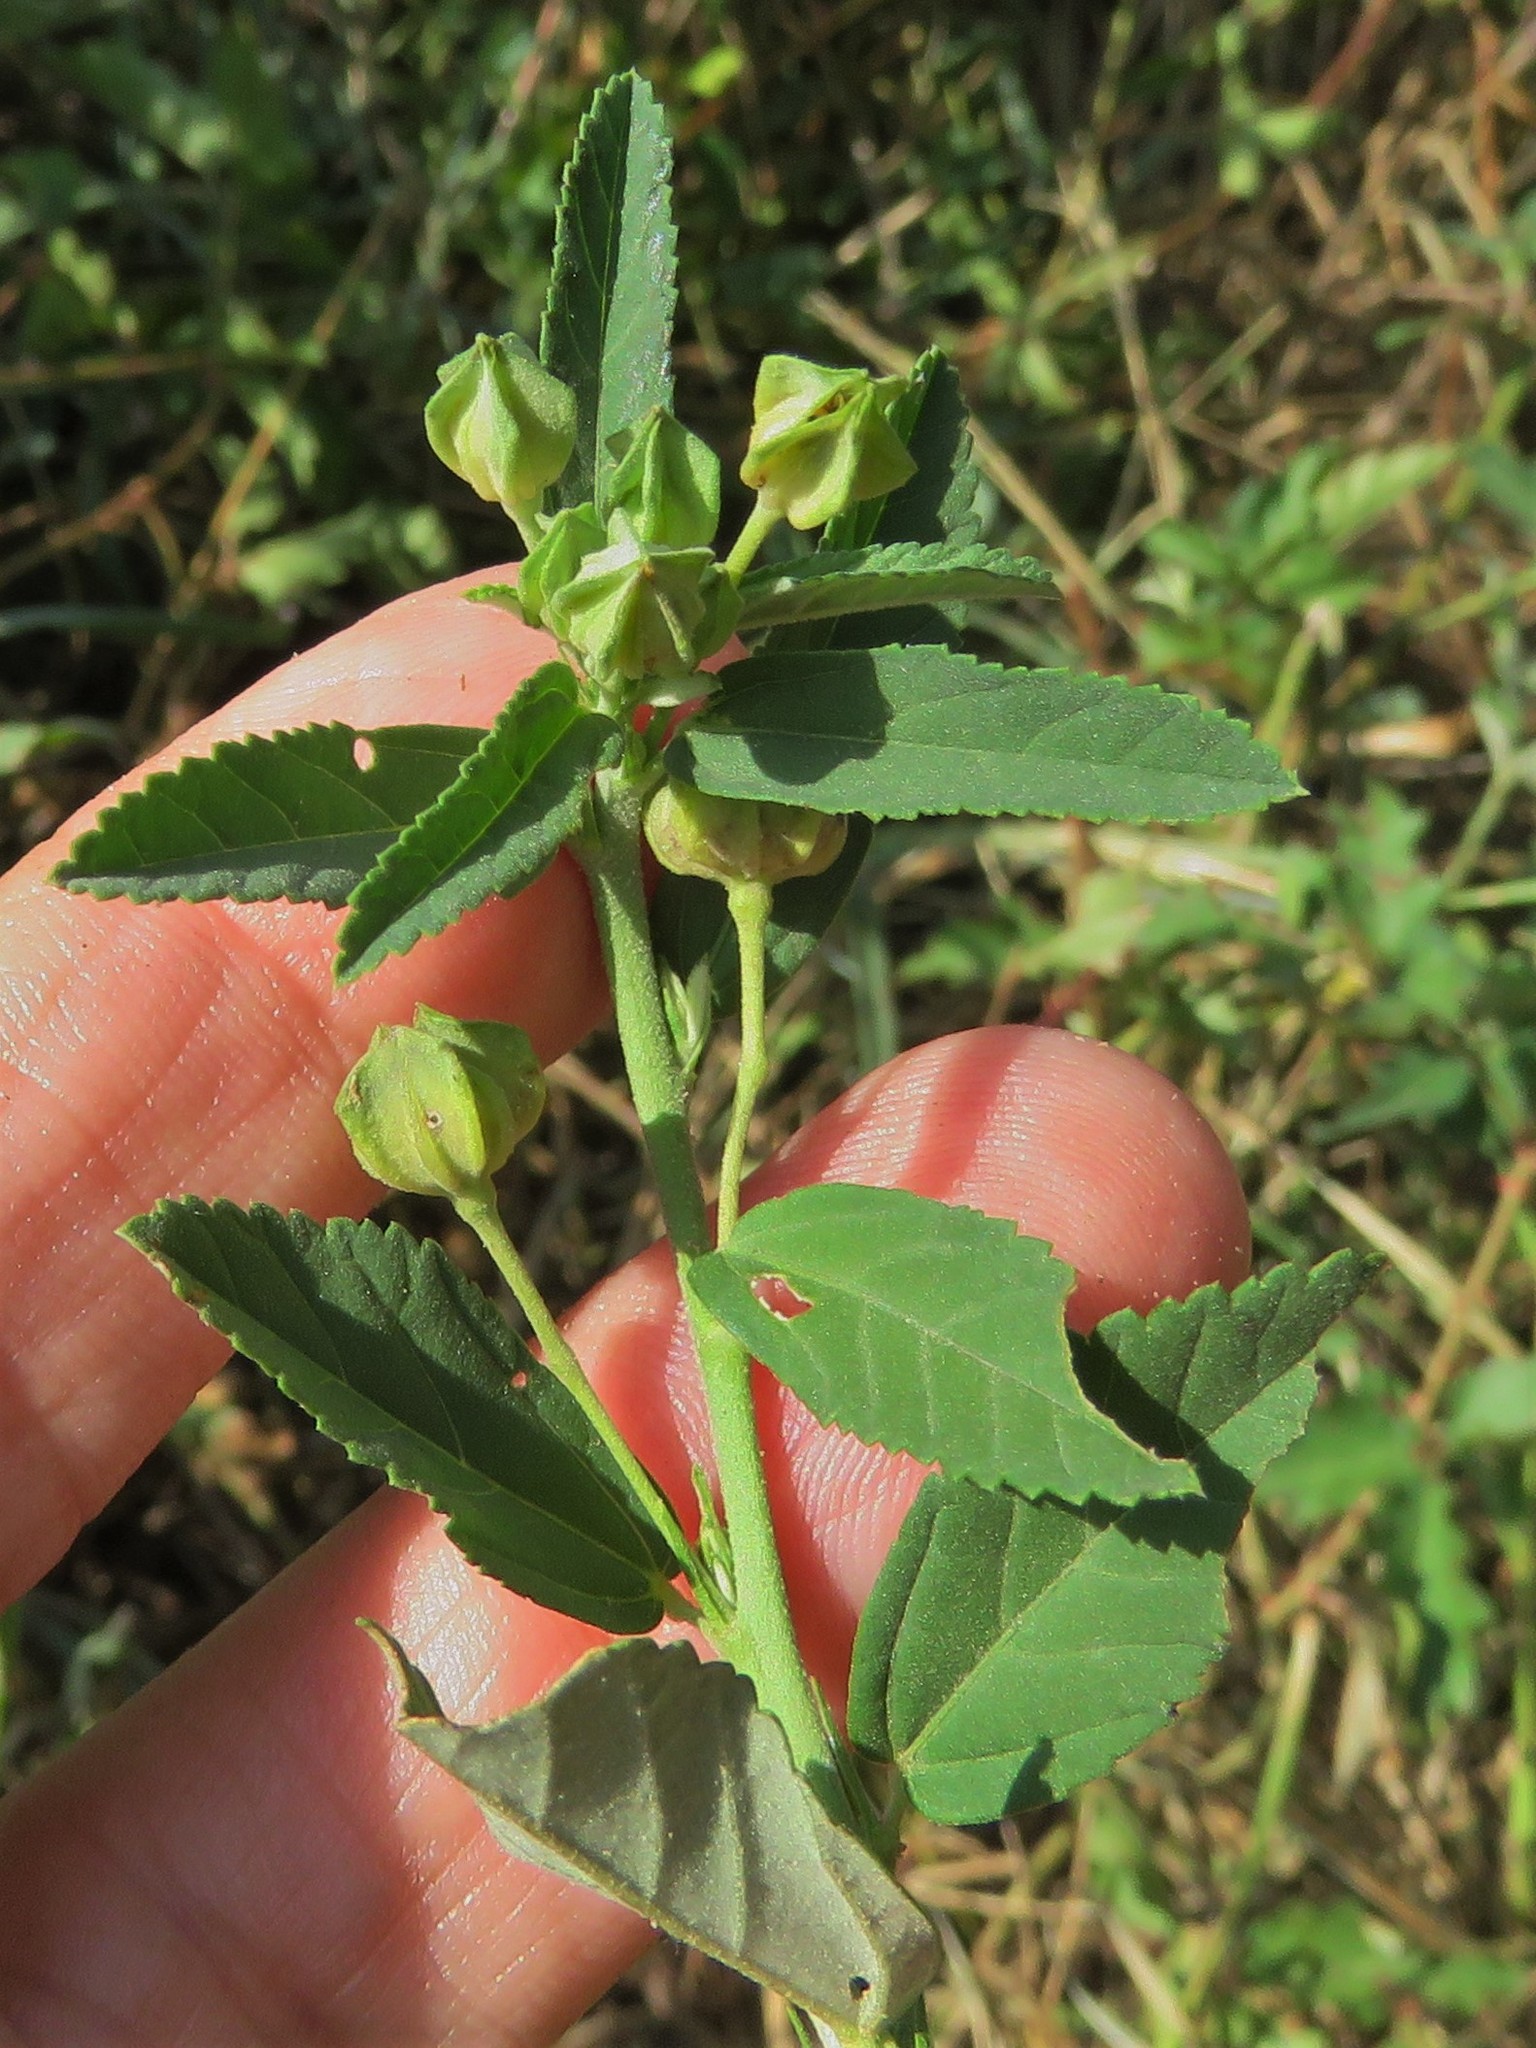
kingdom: Plantae
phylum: Tracheophyta
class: Magnoliopsida
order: Malvales
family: Malvaceae
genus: Sida
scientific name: Sida rhombifolia
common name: Queensland-hemp
